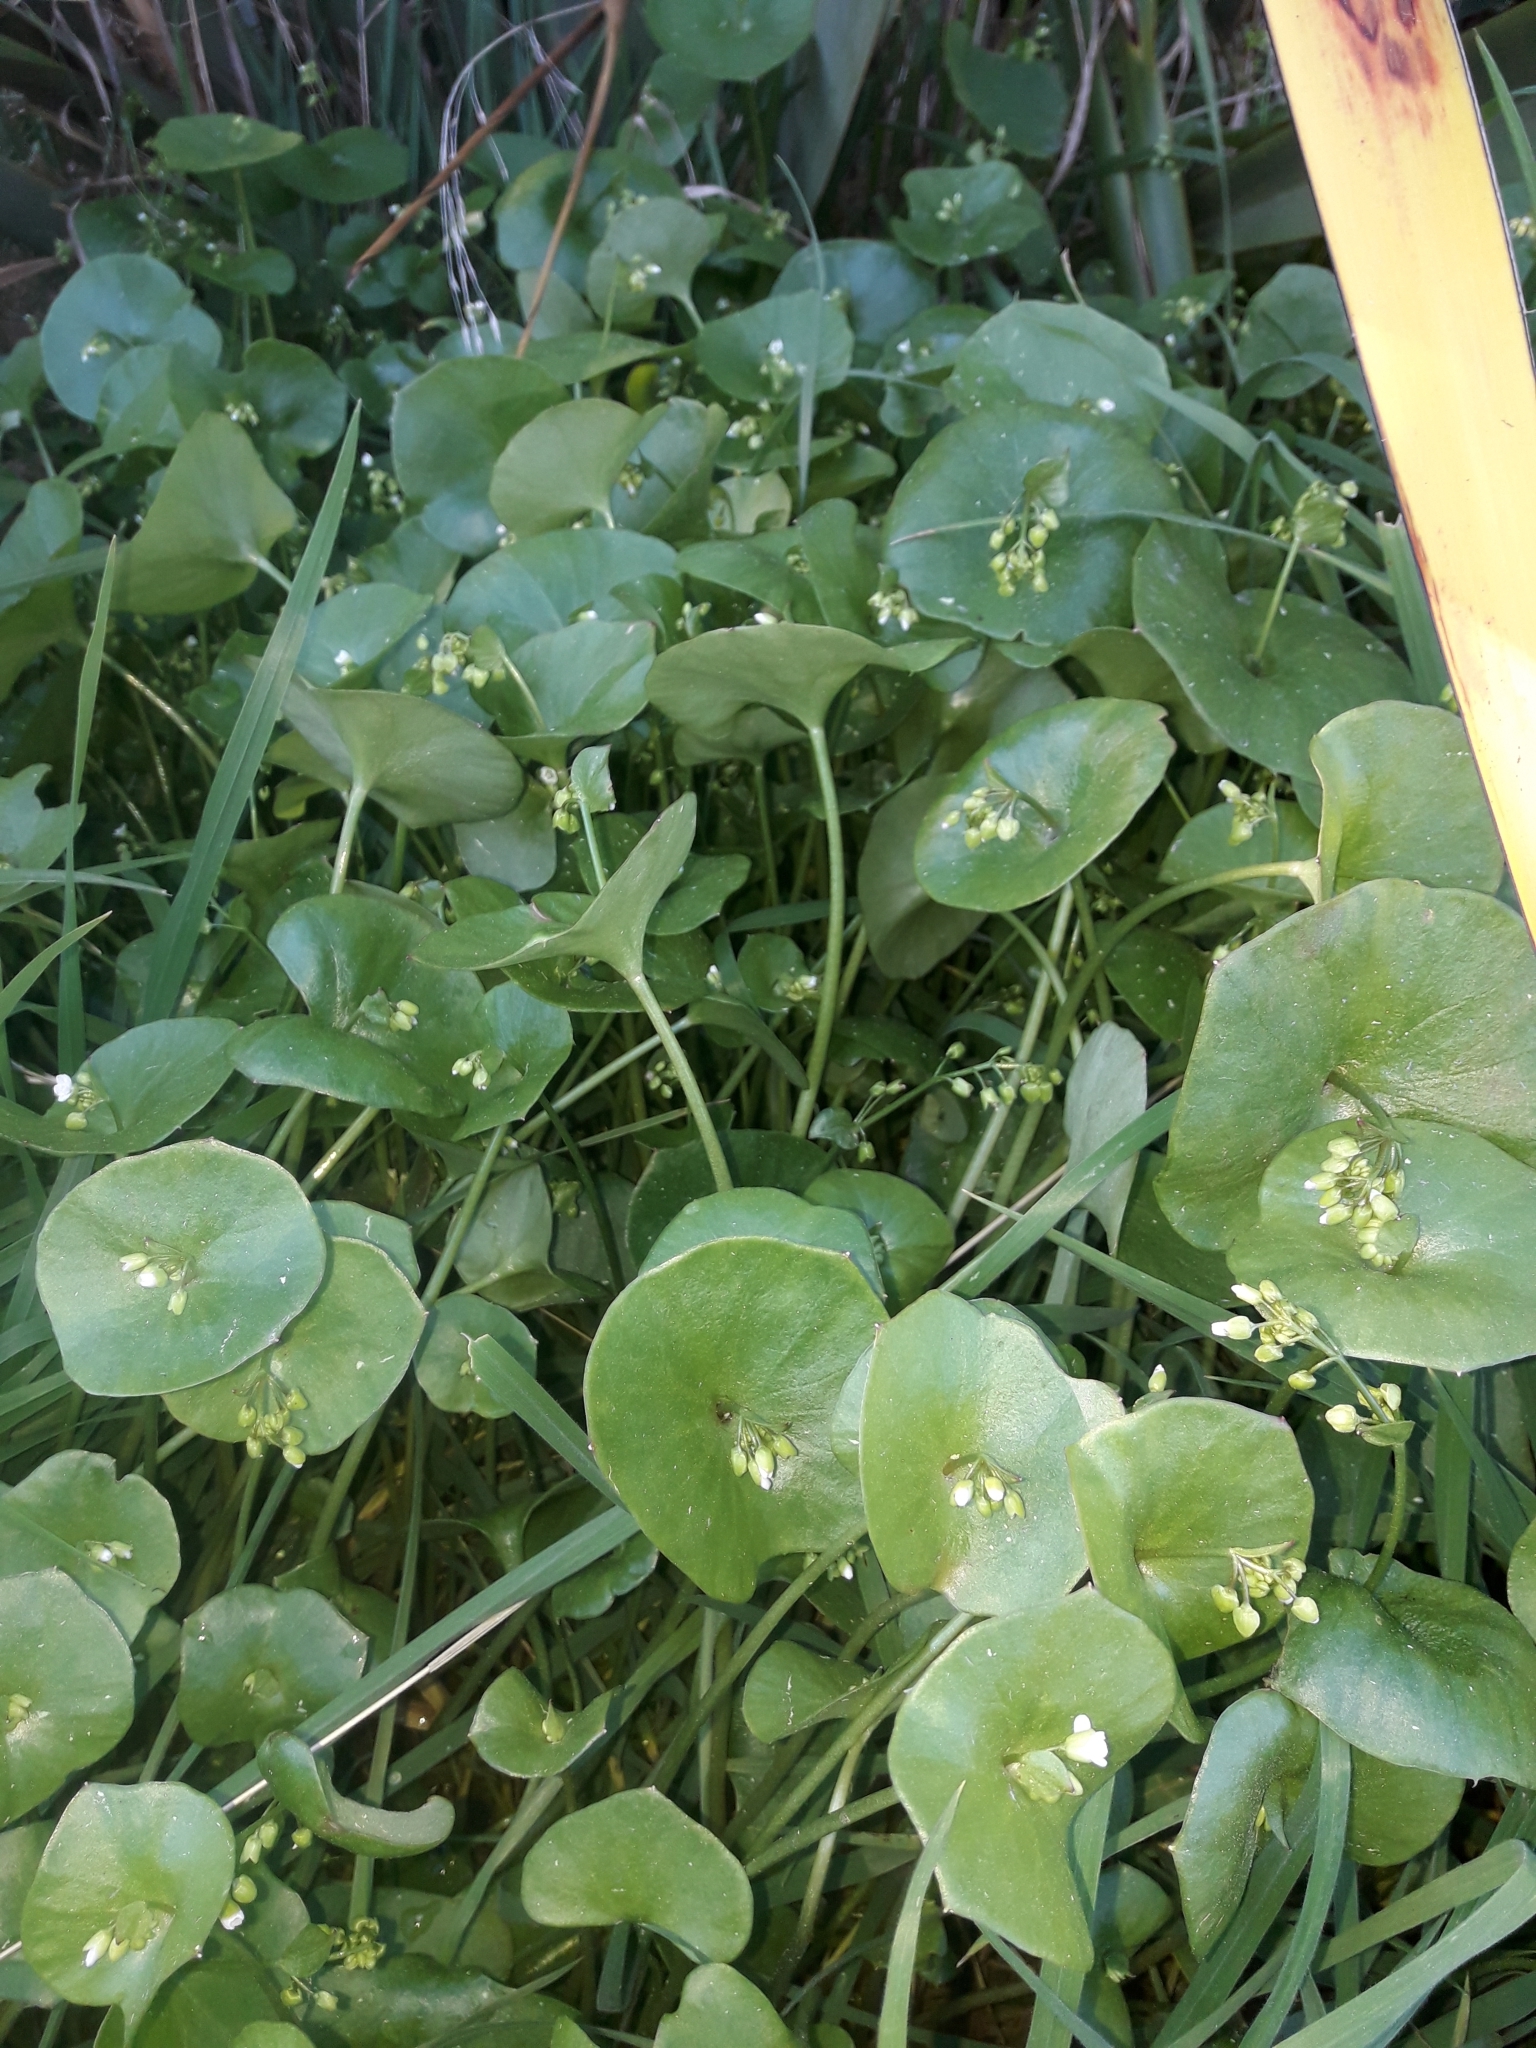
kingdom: Plantae
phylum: Tracheophyta
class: Magnoliopsida
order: Caryophyllales
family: Montiaceae
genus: Claytonia
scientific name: Claytonia perfoliata
